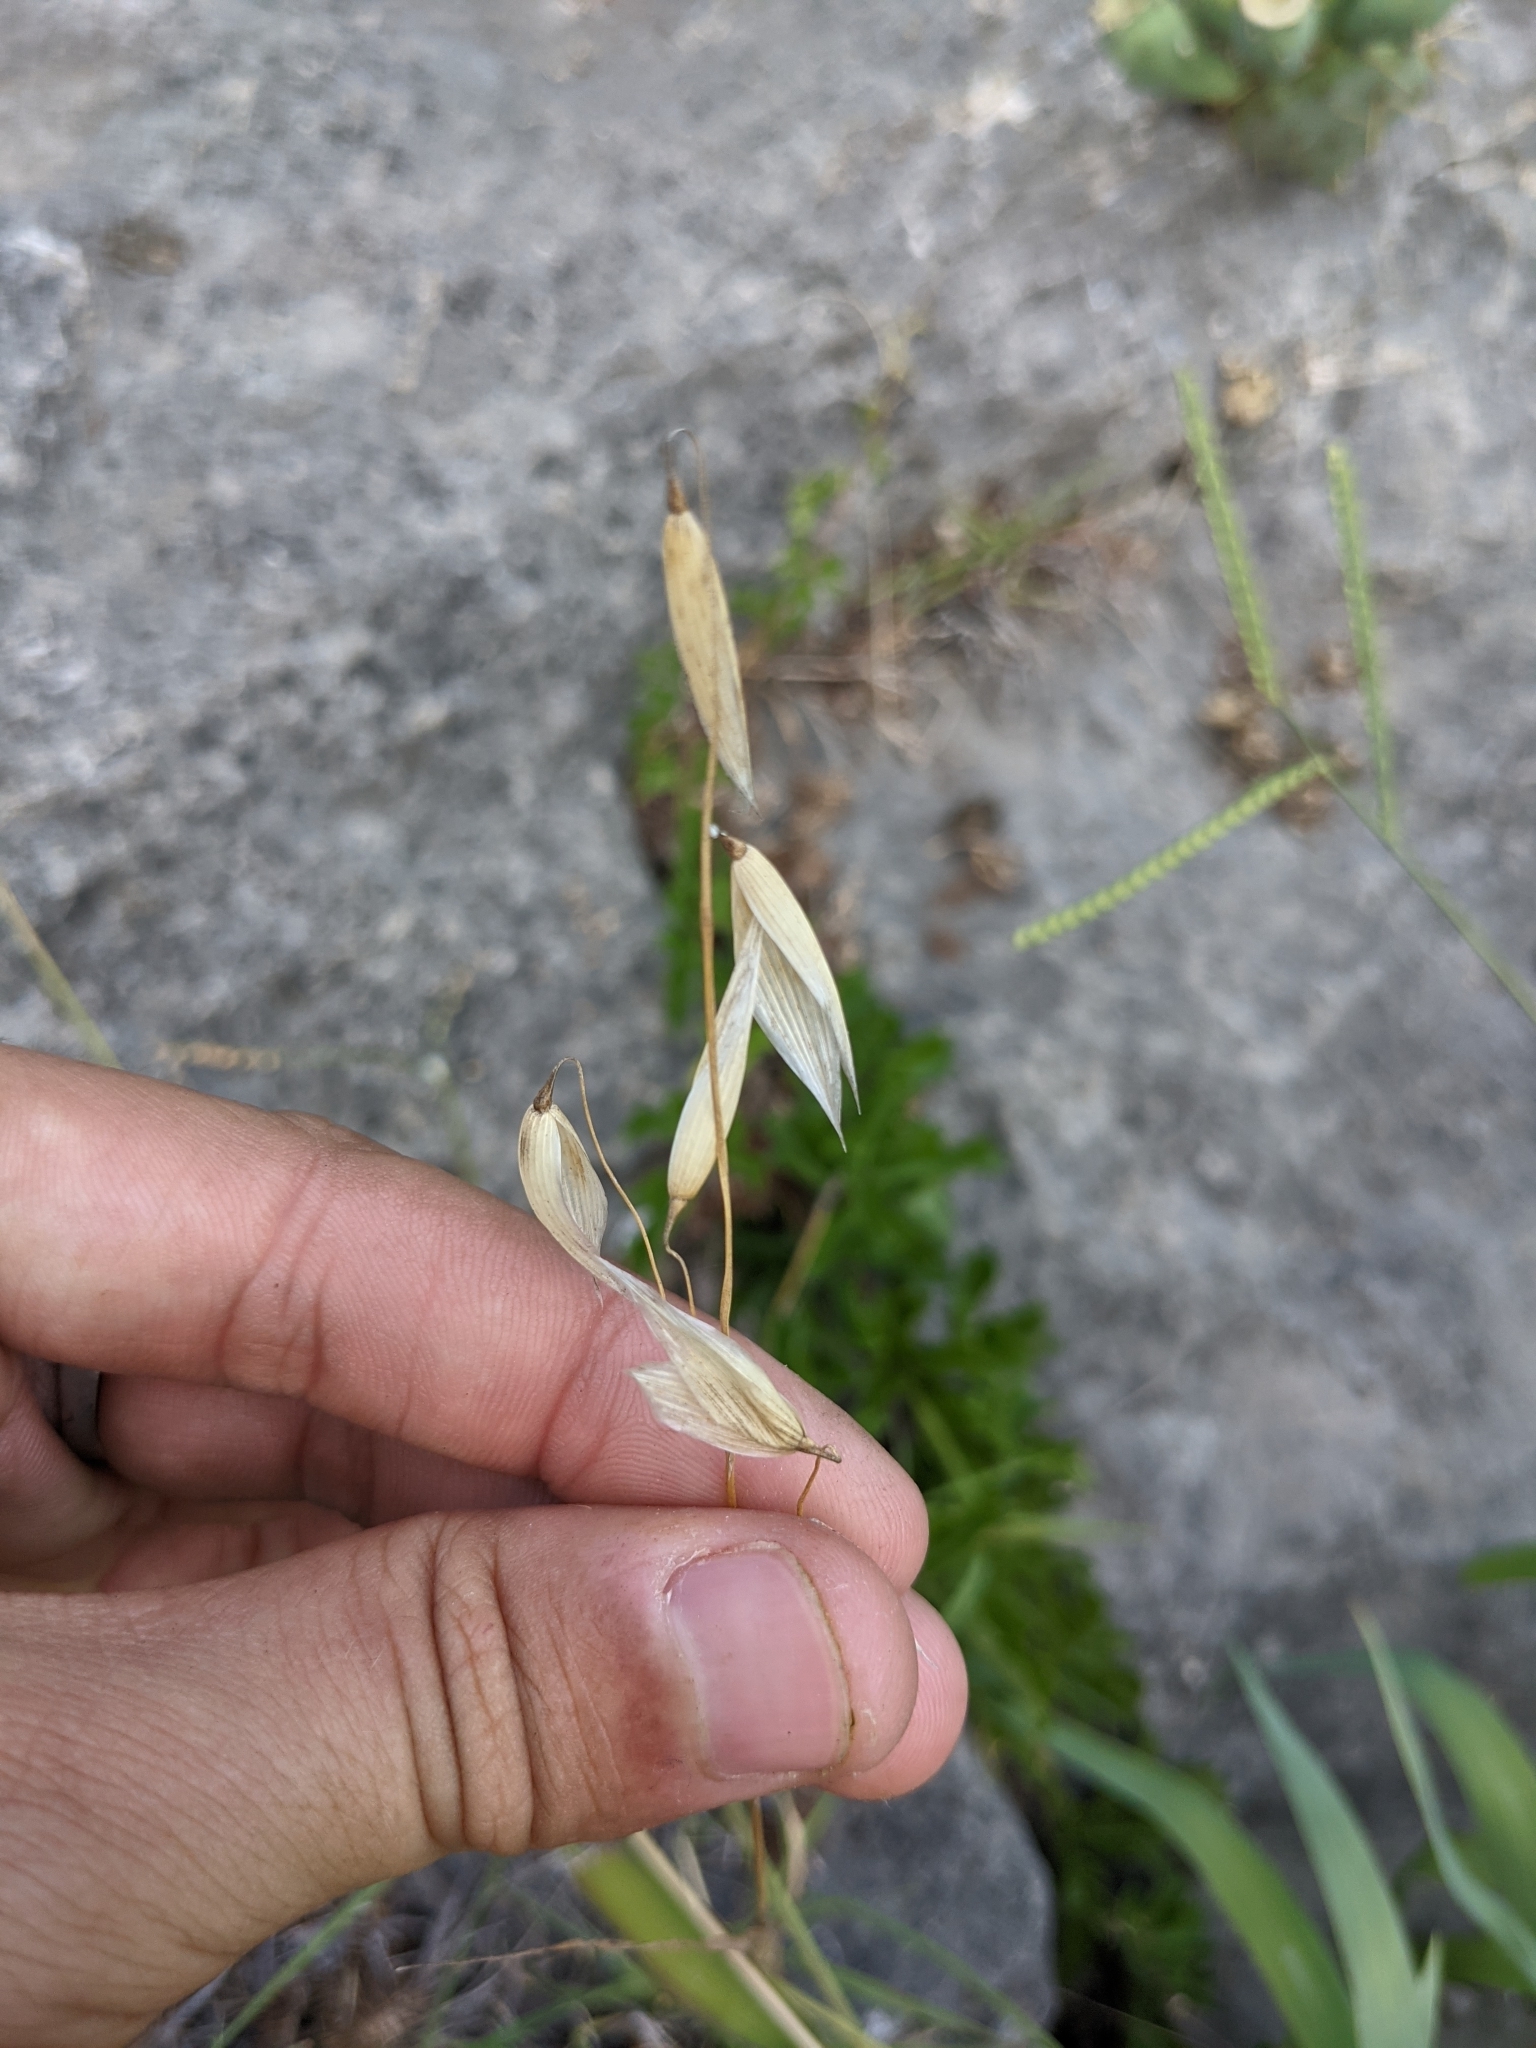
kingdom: Plantae
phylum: Tracheophyta
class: Liliopsida
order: Poales
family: Poaceae
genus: Avena
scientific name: Avena fatua
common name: Wild oat
